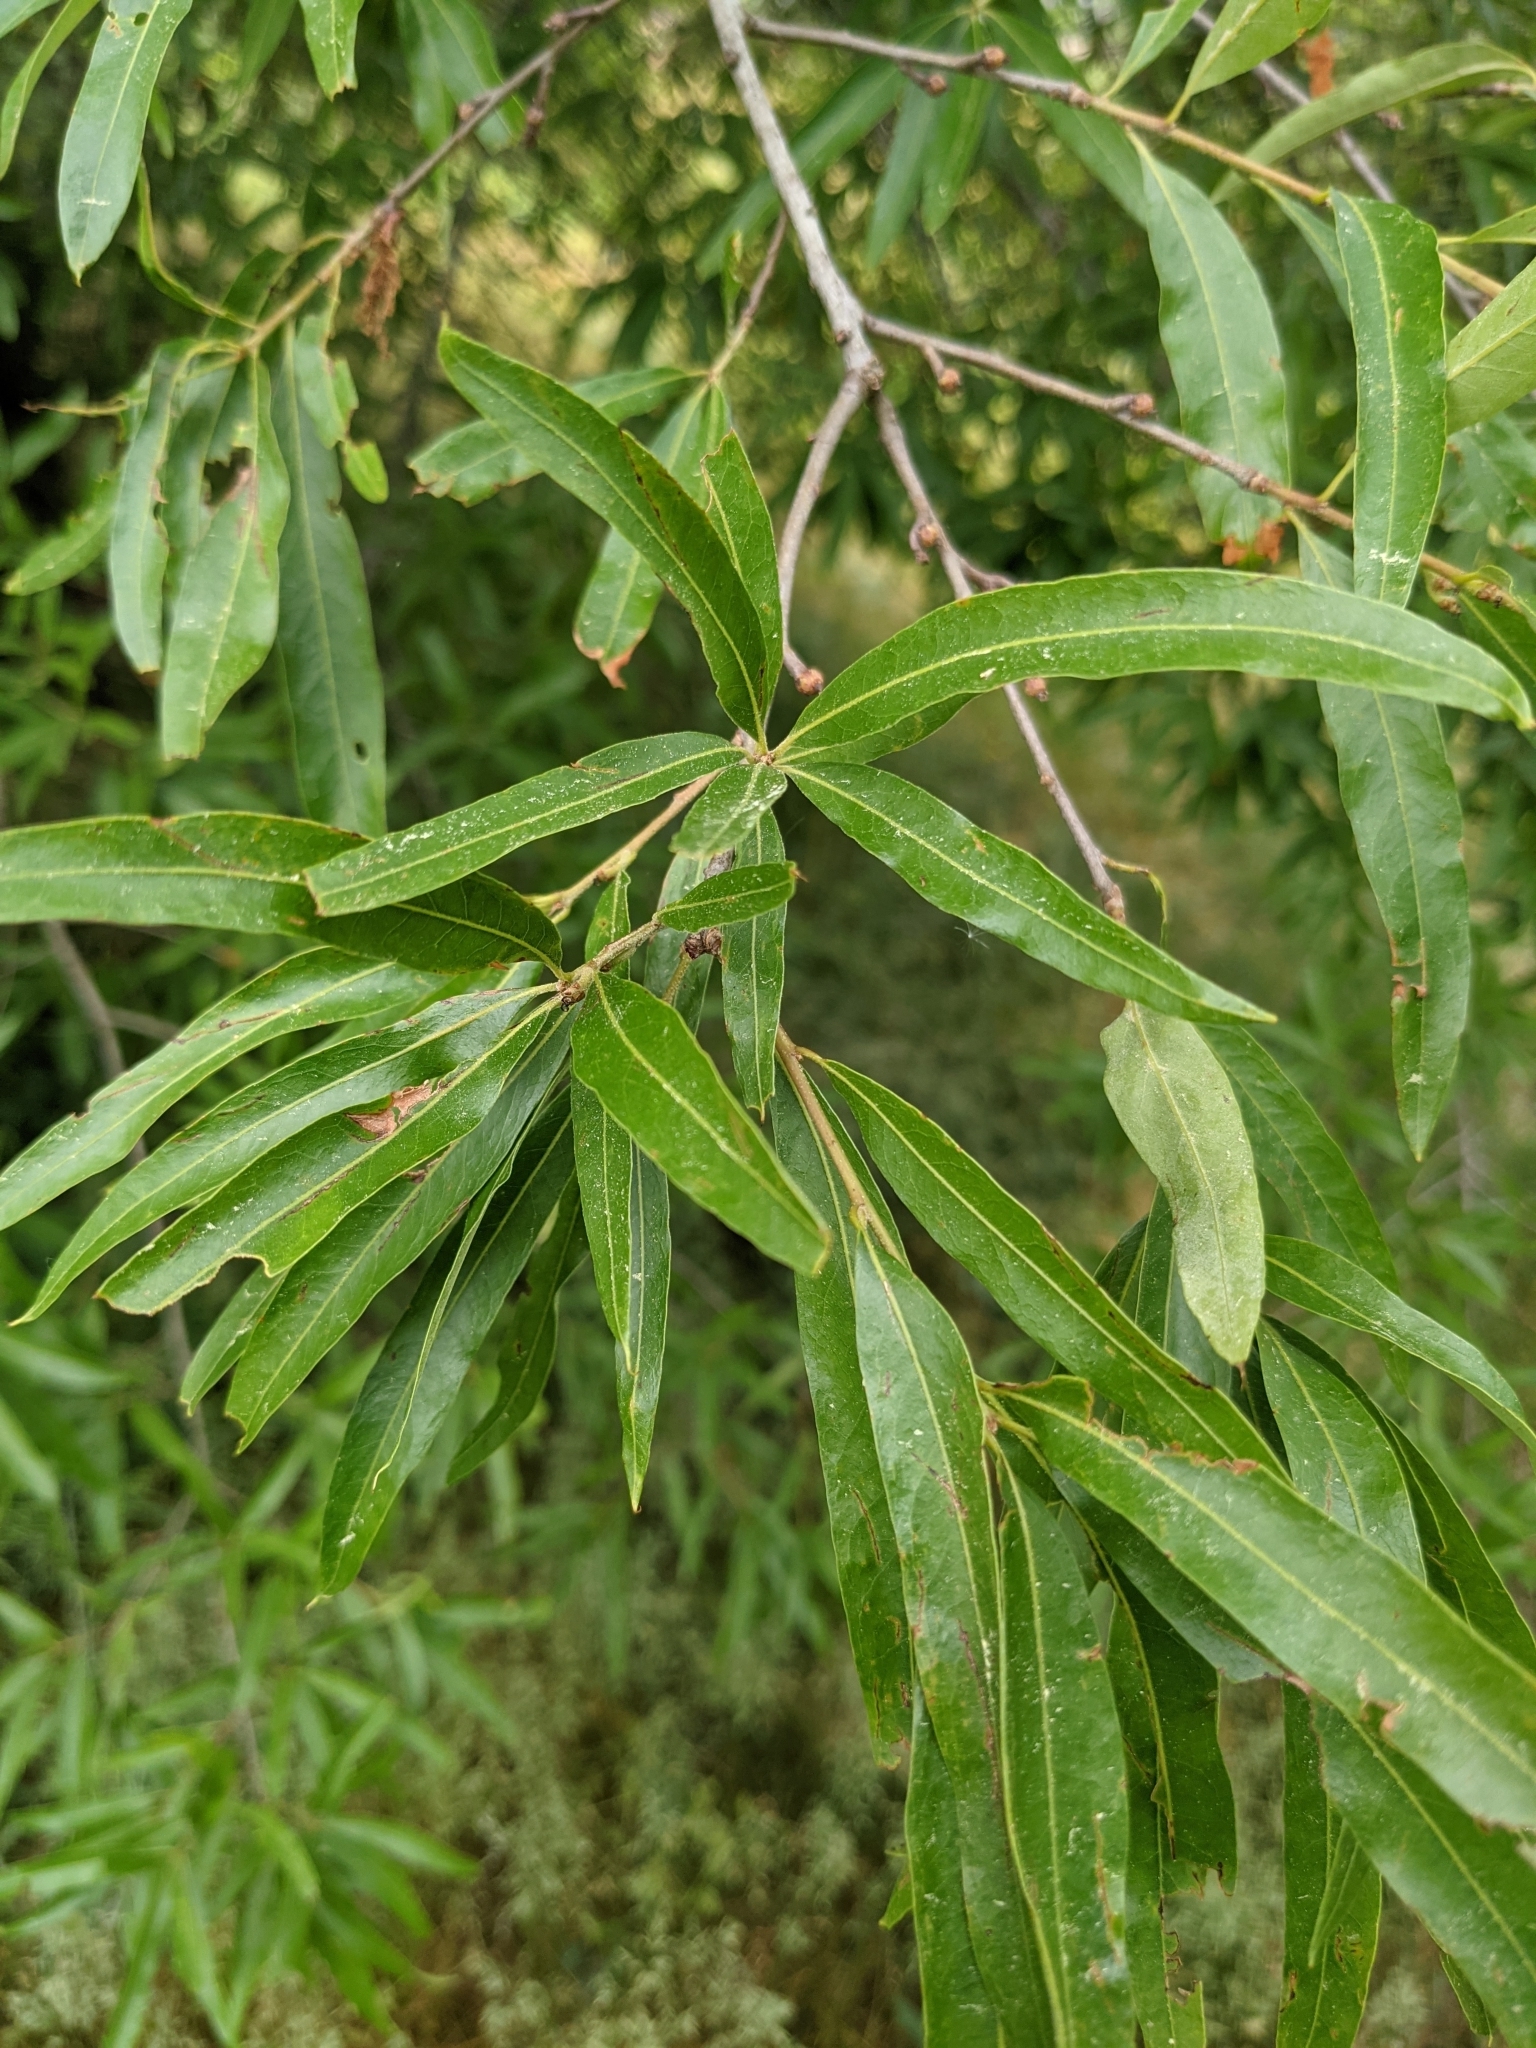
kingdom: Plantae
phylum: Tracheophyta
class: Magnoliopsida
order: Fagales
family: Fagaceae
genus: Quercus
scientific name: Quercus phellos
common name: Willow oak
